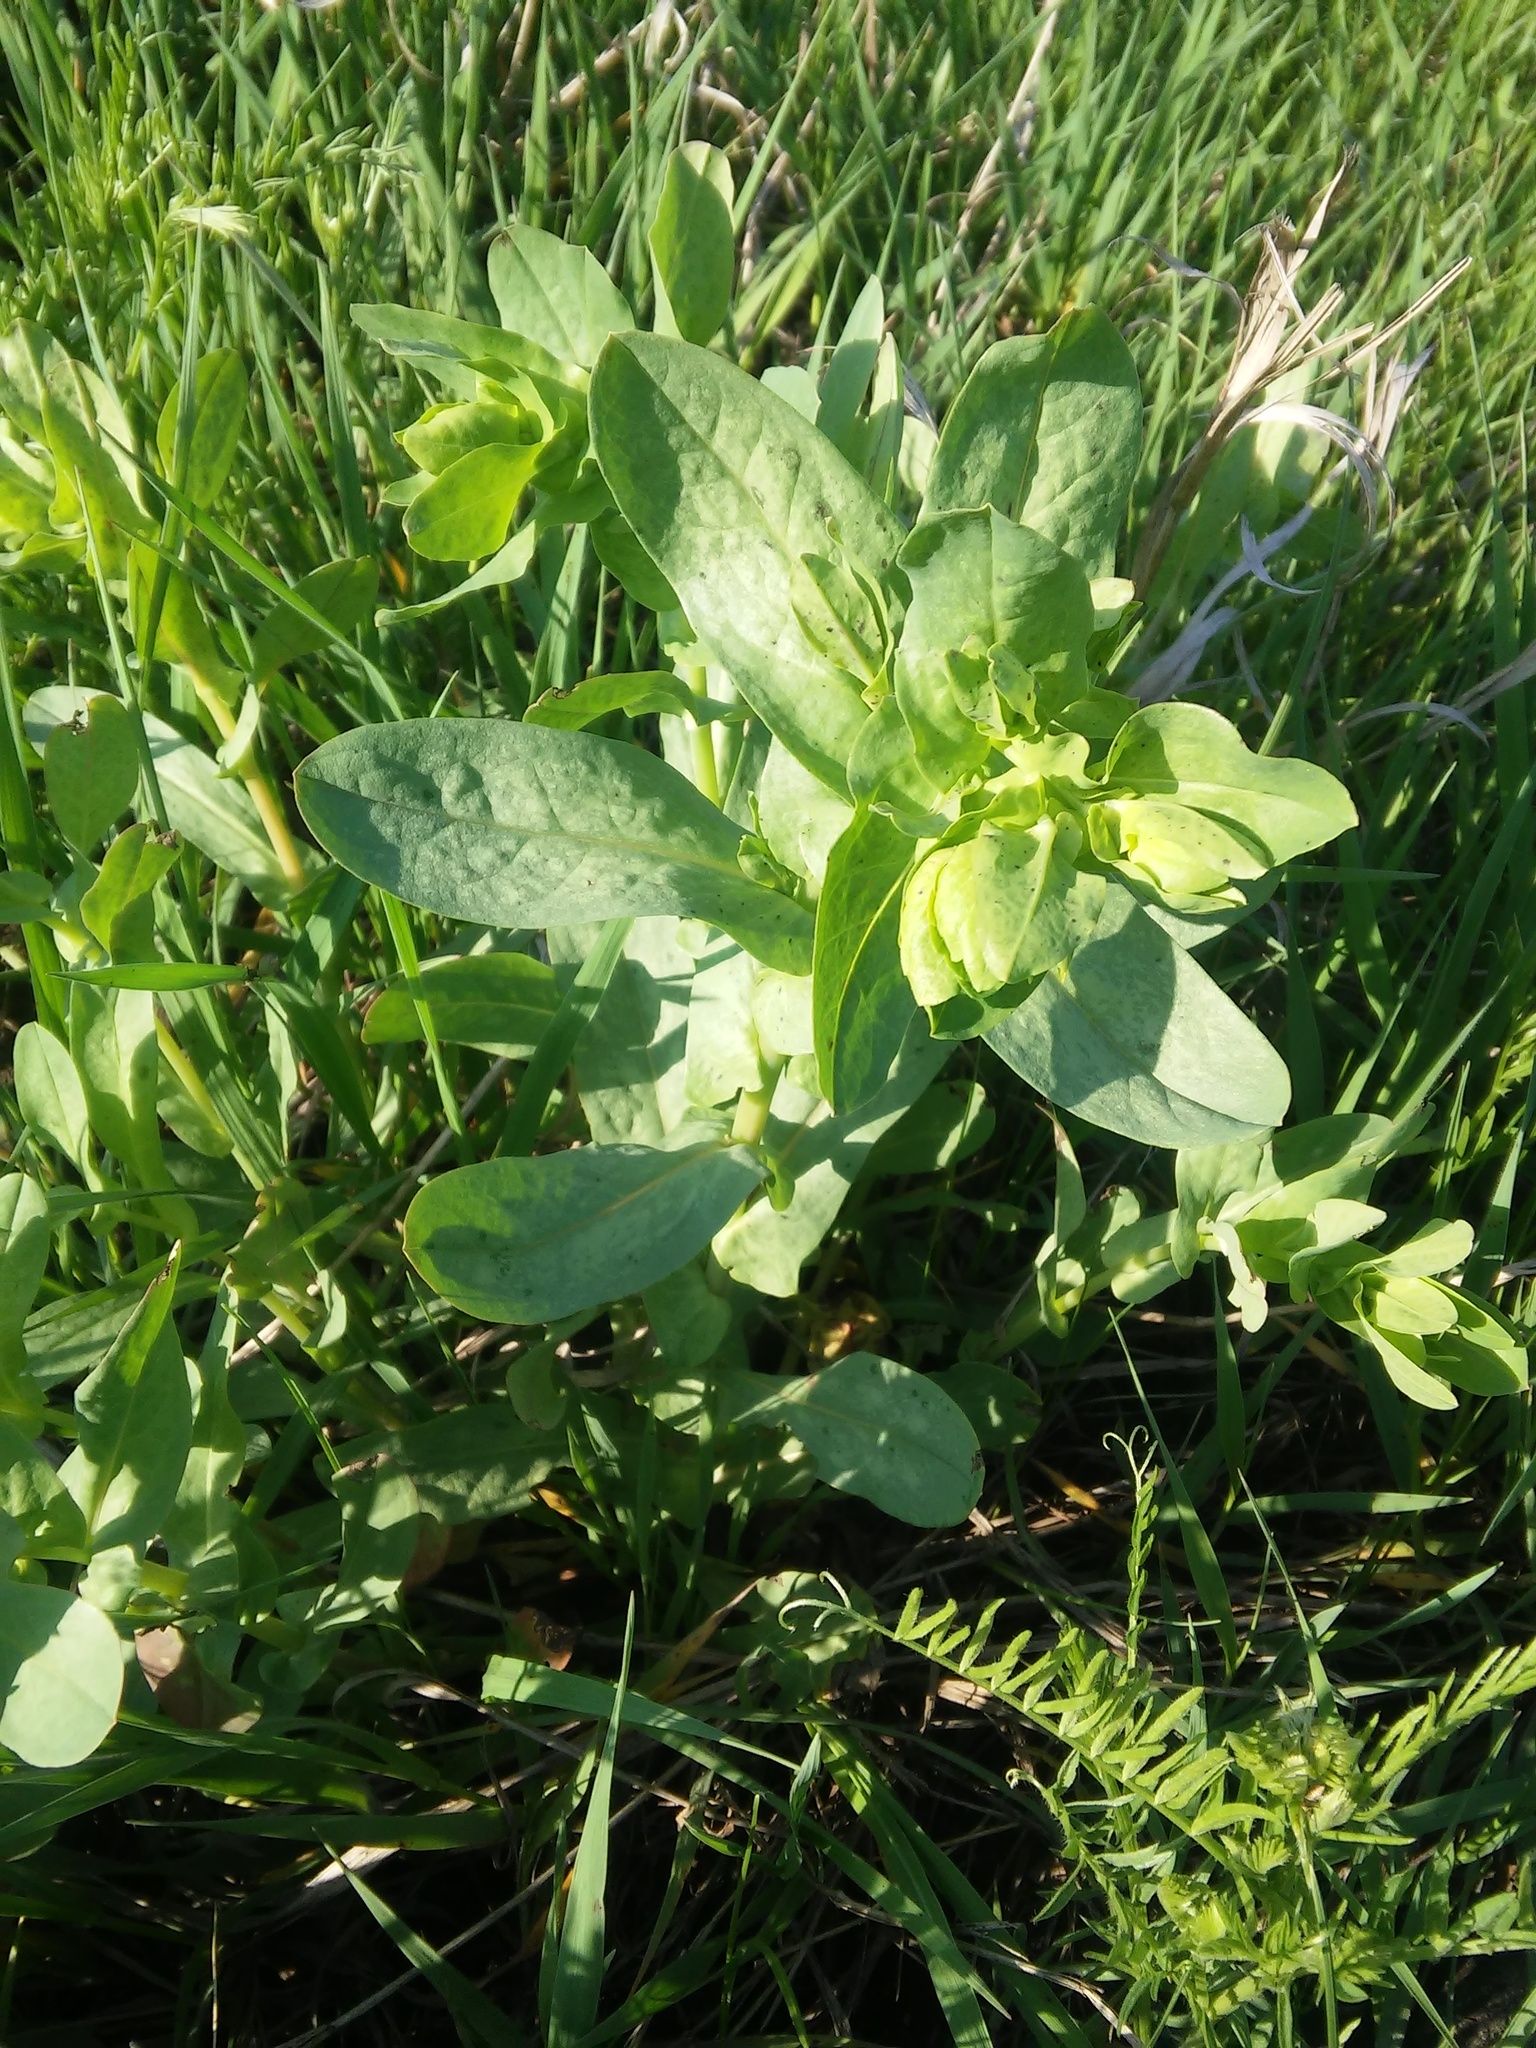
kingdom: Plantae
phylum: Tracheophyta
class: Magnoliopsida
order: Boraginales
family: Boraginaceae
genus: Cerinthe
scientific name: Cerinthe minor
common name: Lesser honeywort
